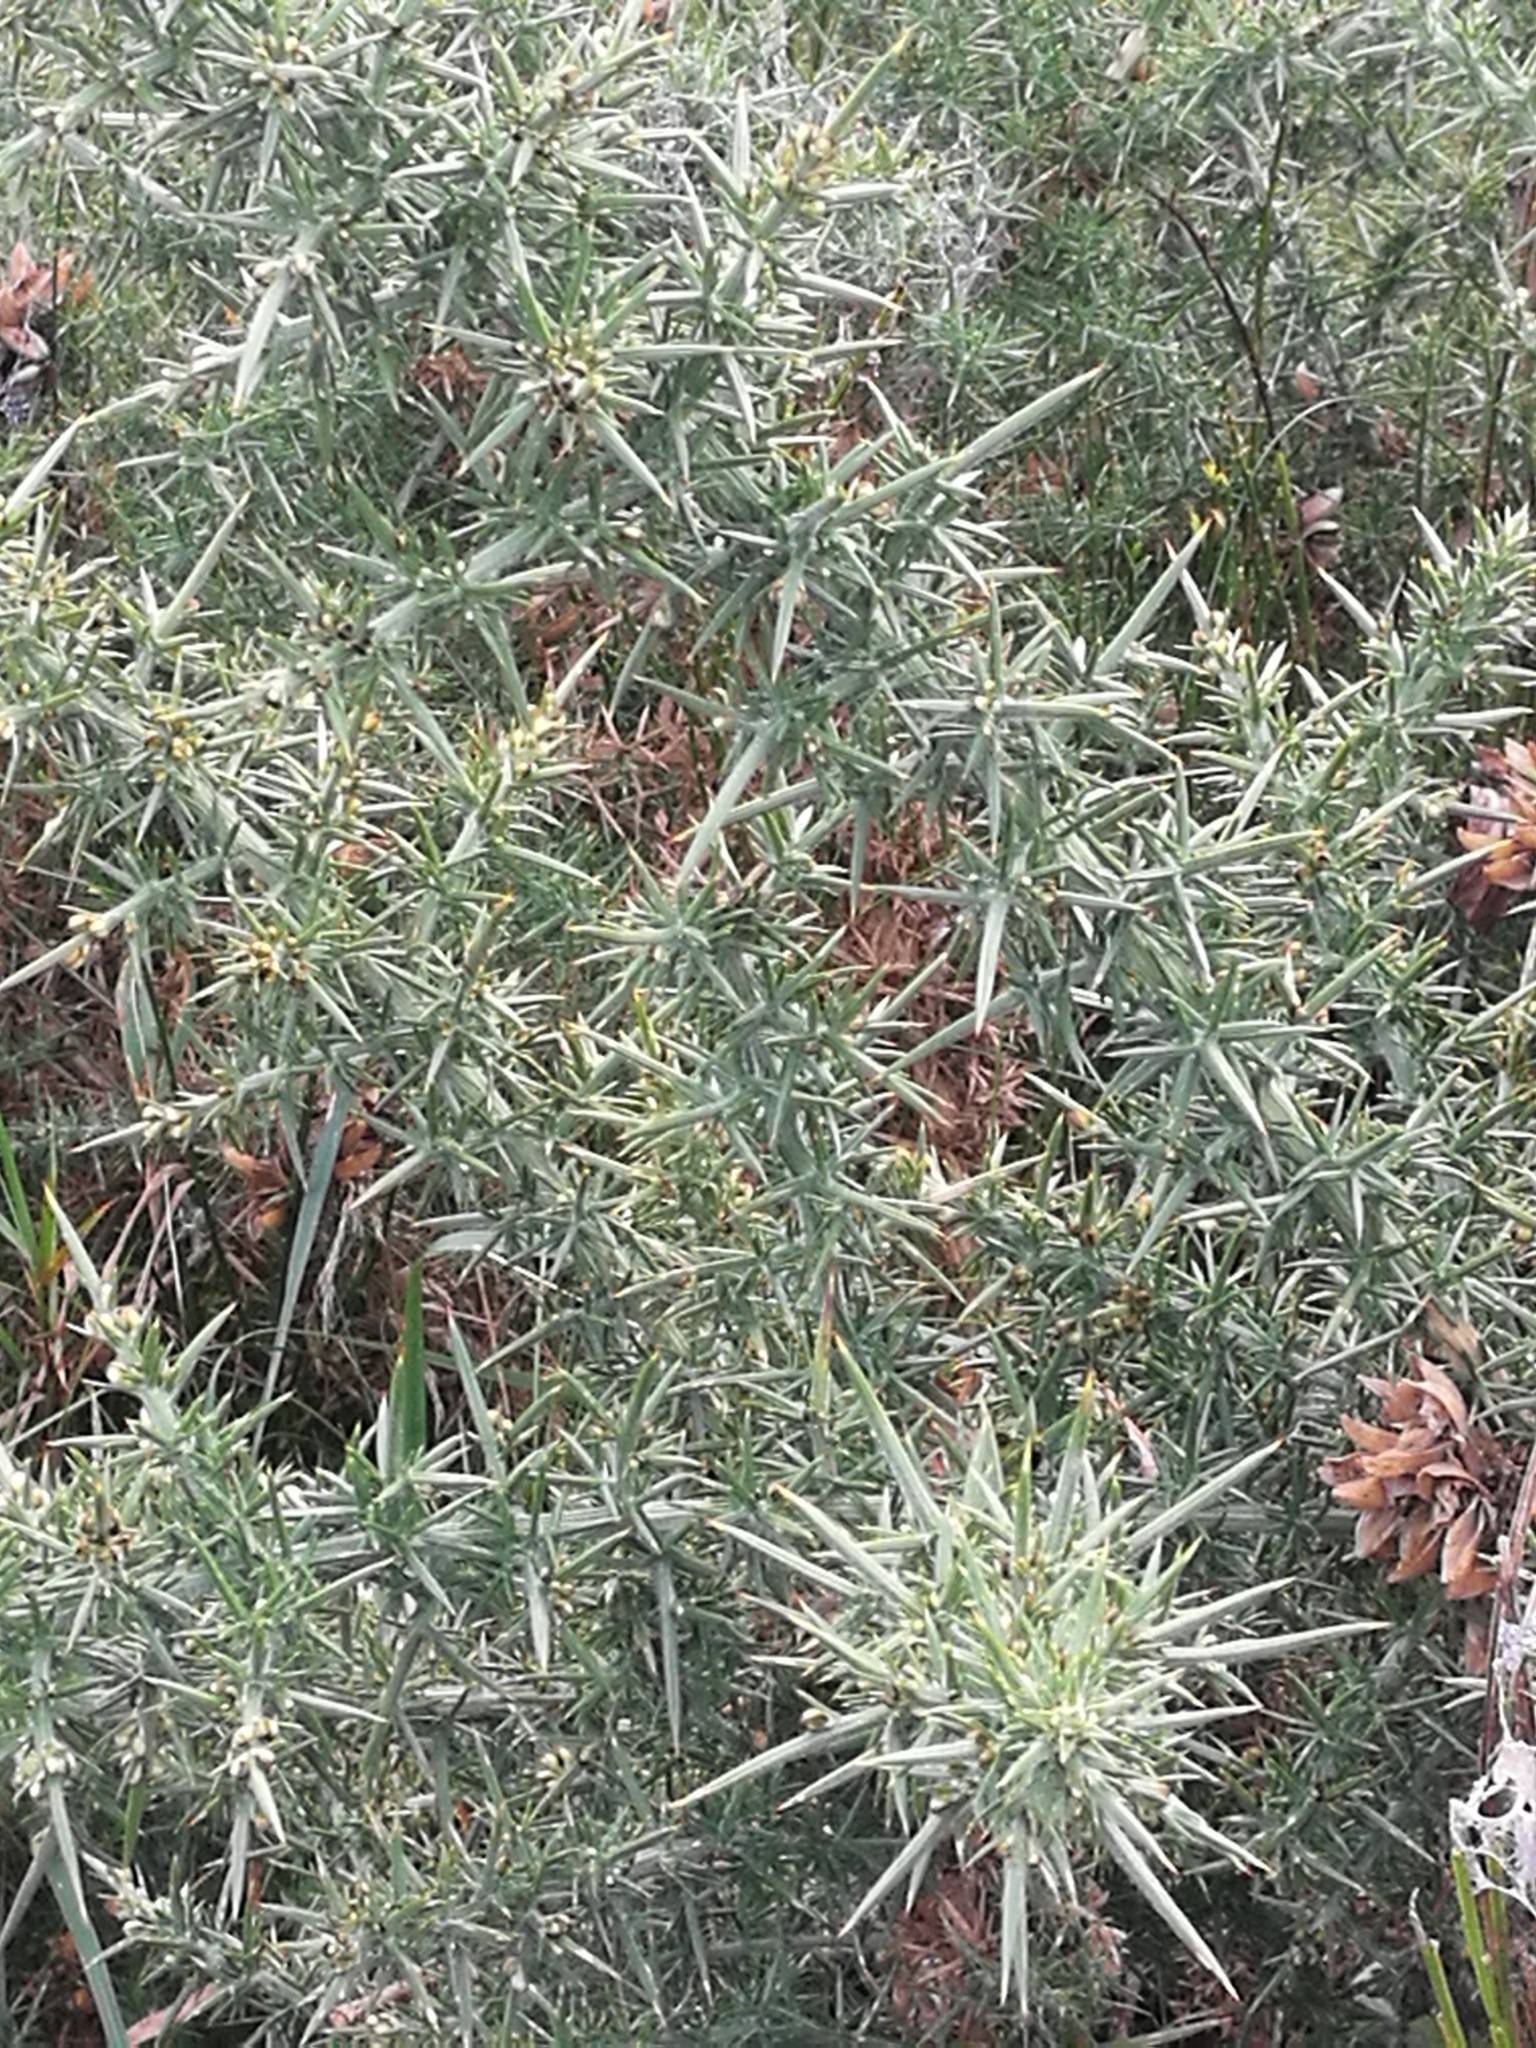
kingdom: Plantae
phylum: Tracheophyta
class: Magnoliopsida
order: Fabales
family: Fabaceae
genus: Ulex
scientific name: Ulex europaeus
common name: Common gorse
